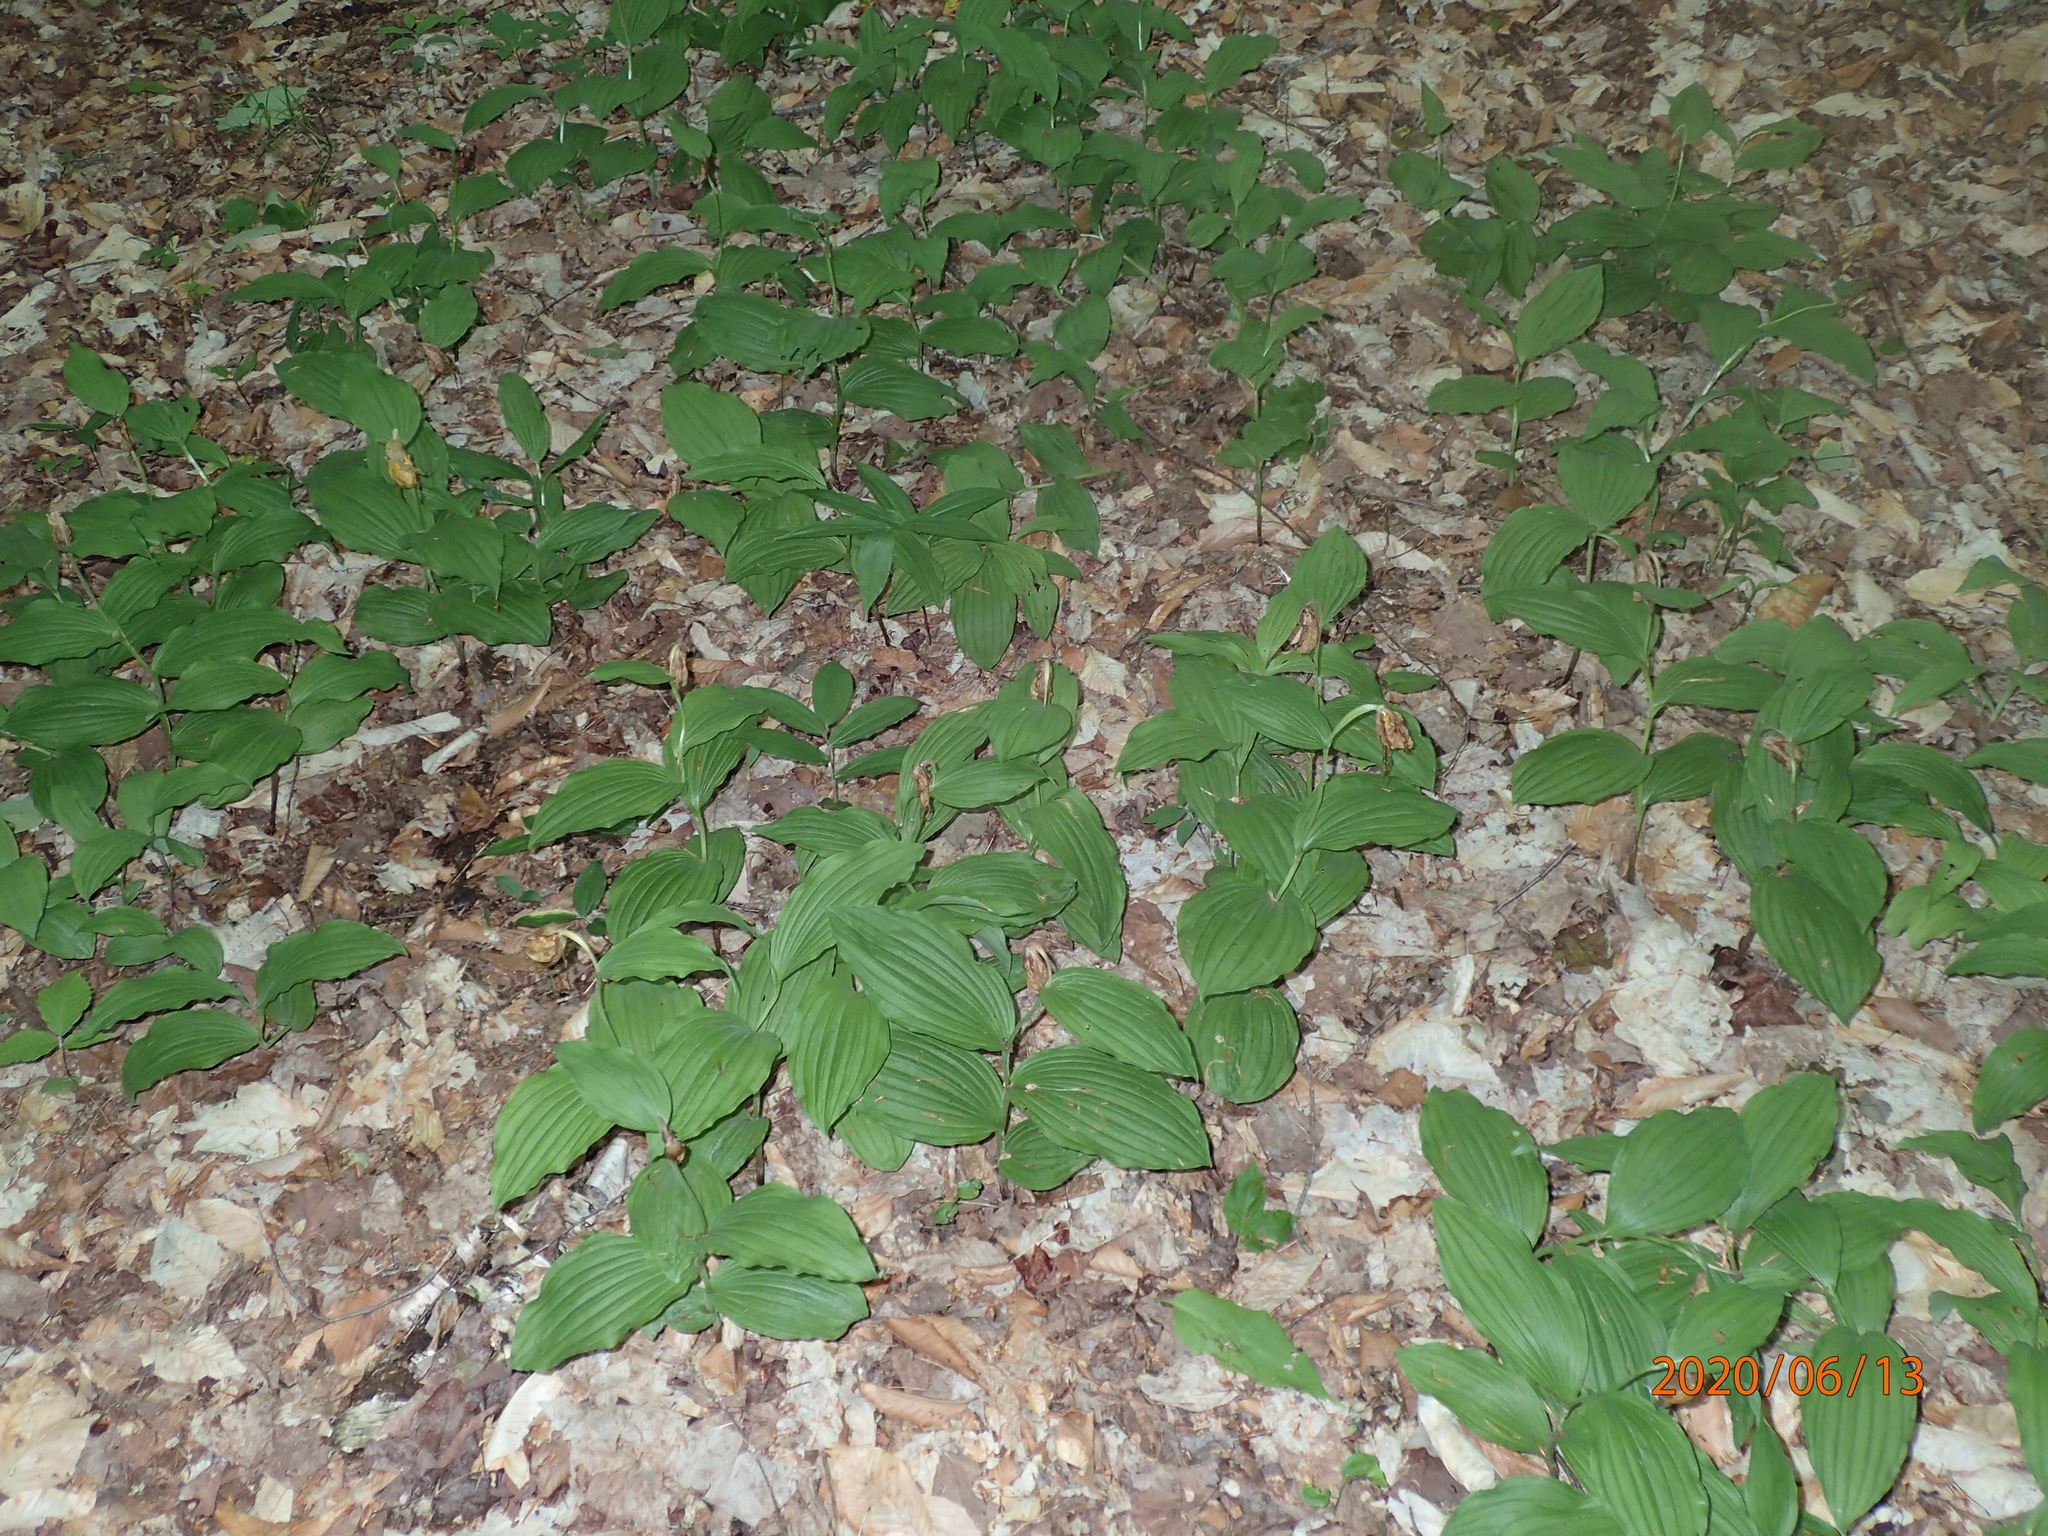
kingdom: Plantae
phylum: Tracheophyta
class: Liliopsida
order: Asparagales
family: Orchidaceae
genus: Cypripedium
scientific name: Cypripedium parviflorum
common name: American yellow lady's-slipper
